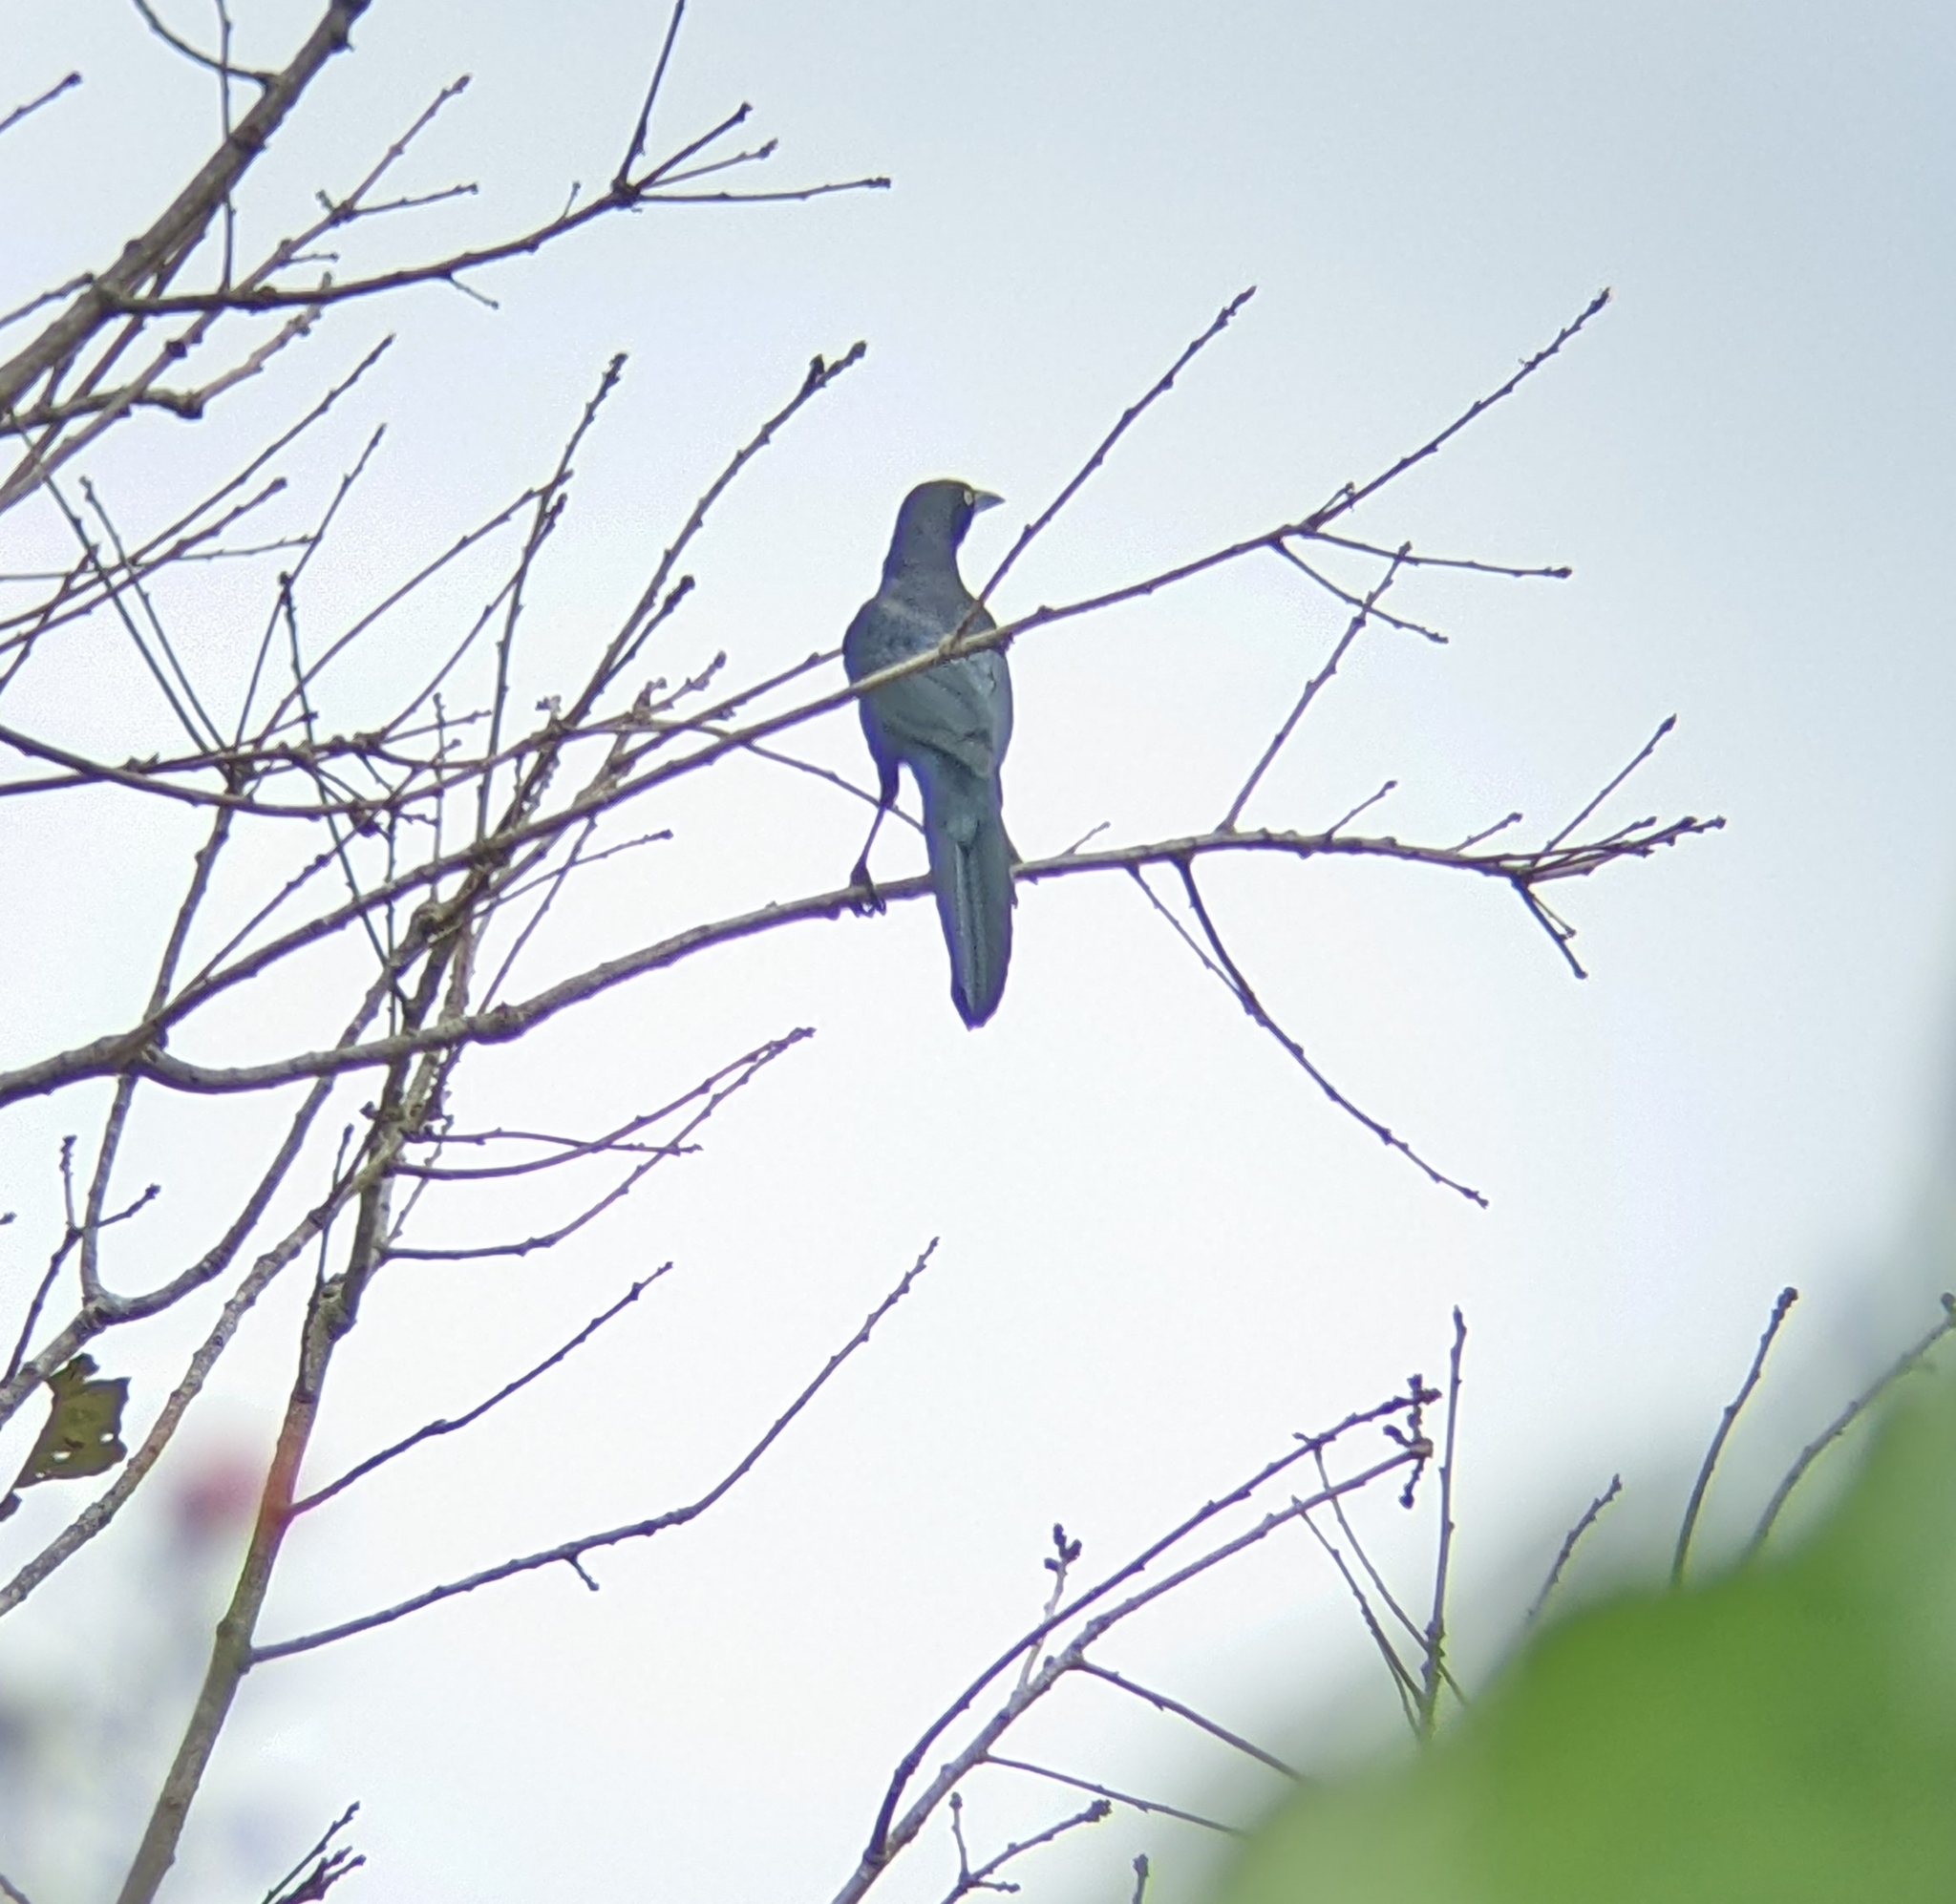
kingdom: Animalia
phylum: Chordata
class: Aves
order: Passeriformes
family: Icteridae
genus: Quiscalus
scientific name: Quiscalus mexicanus
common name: Great-tailed grackle
